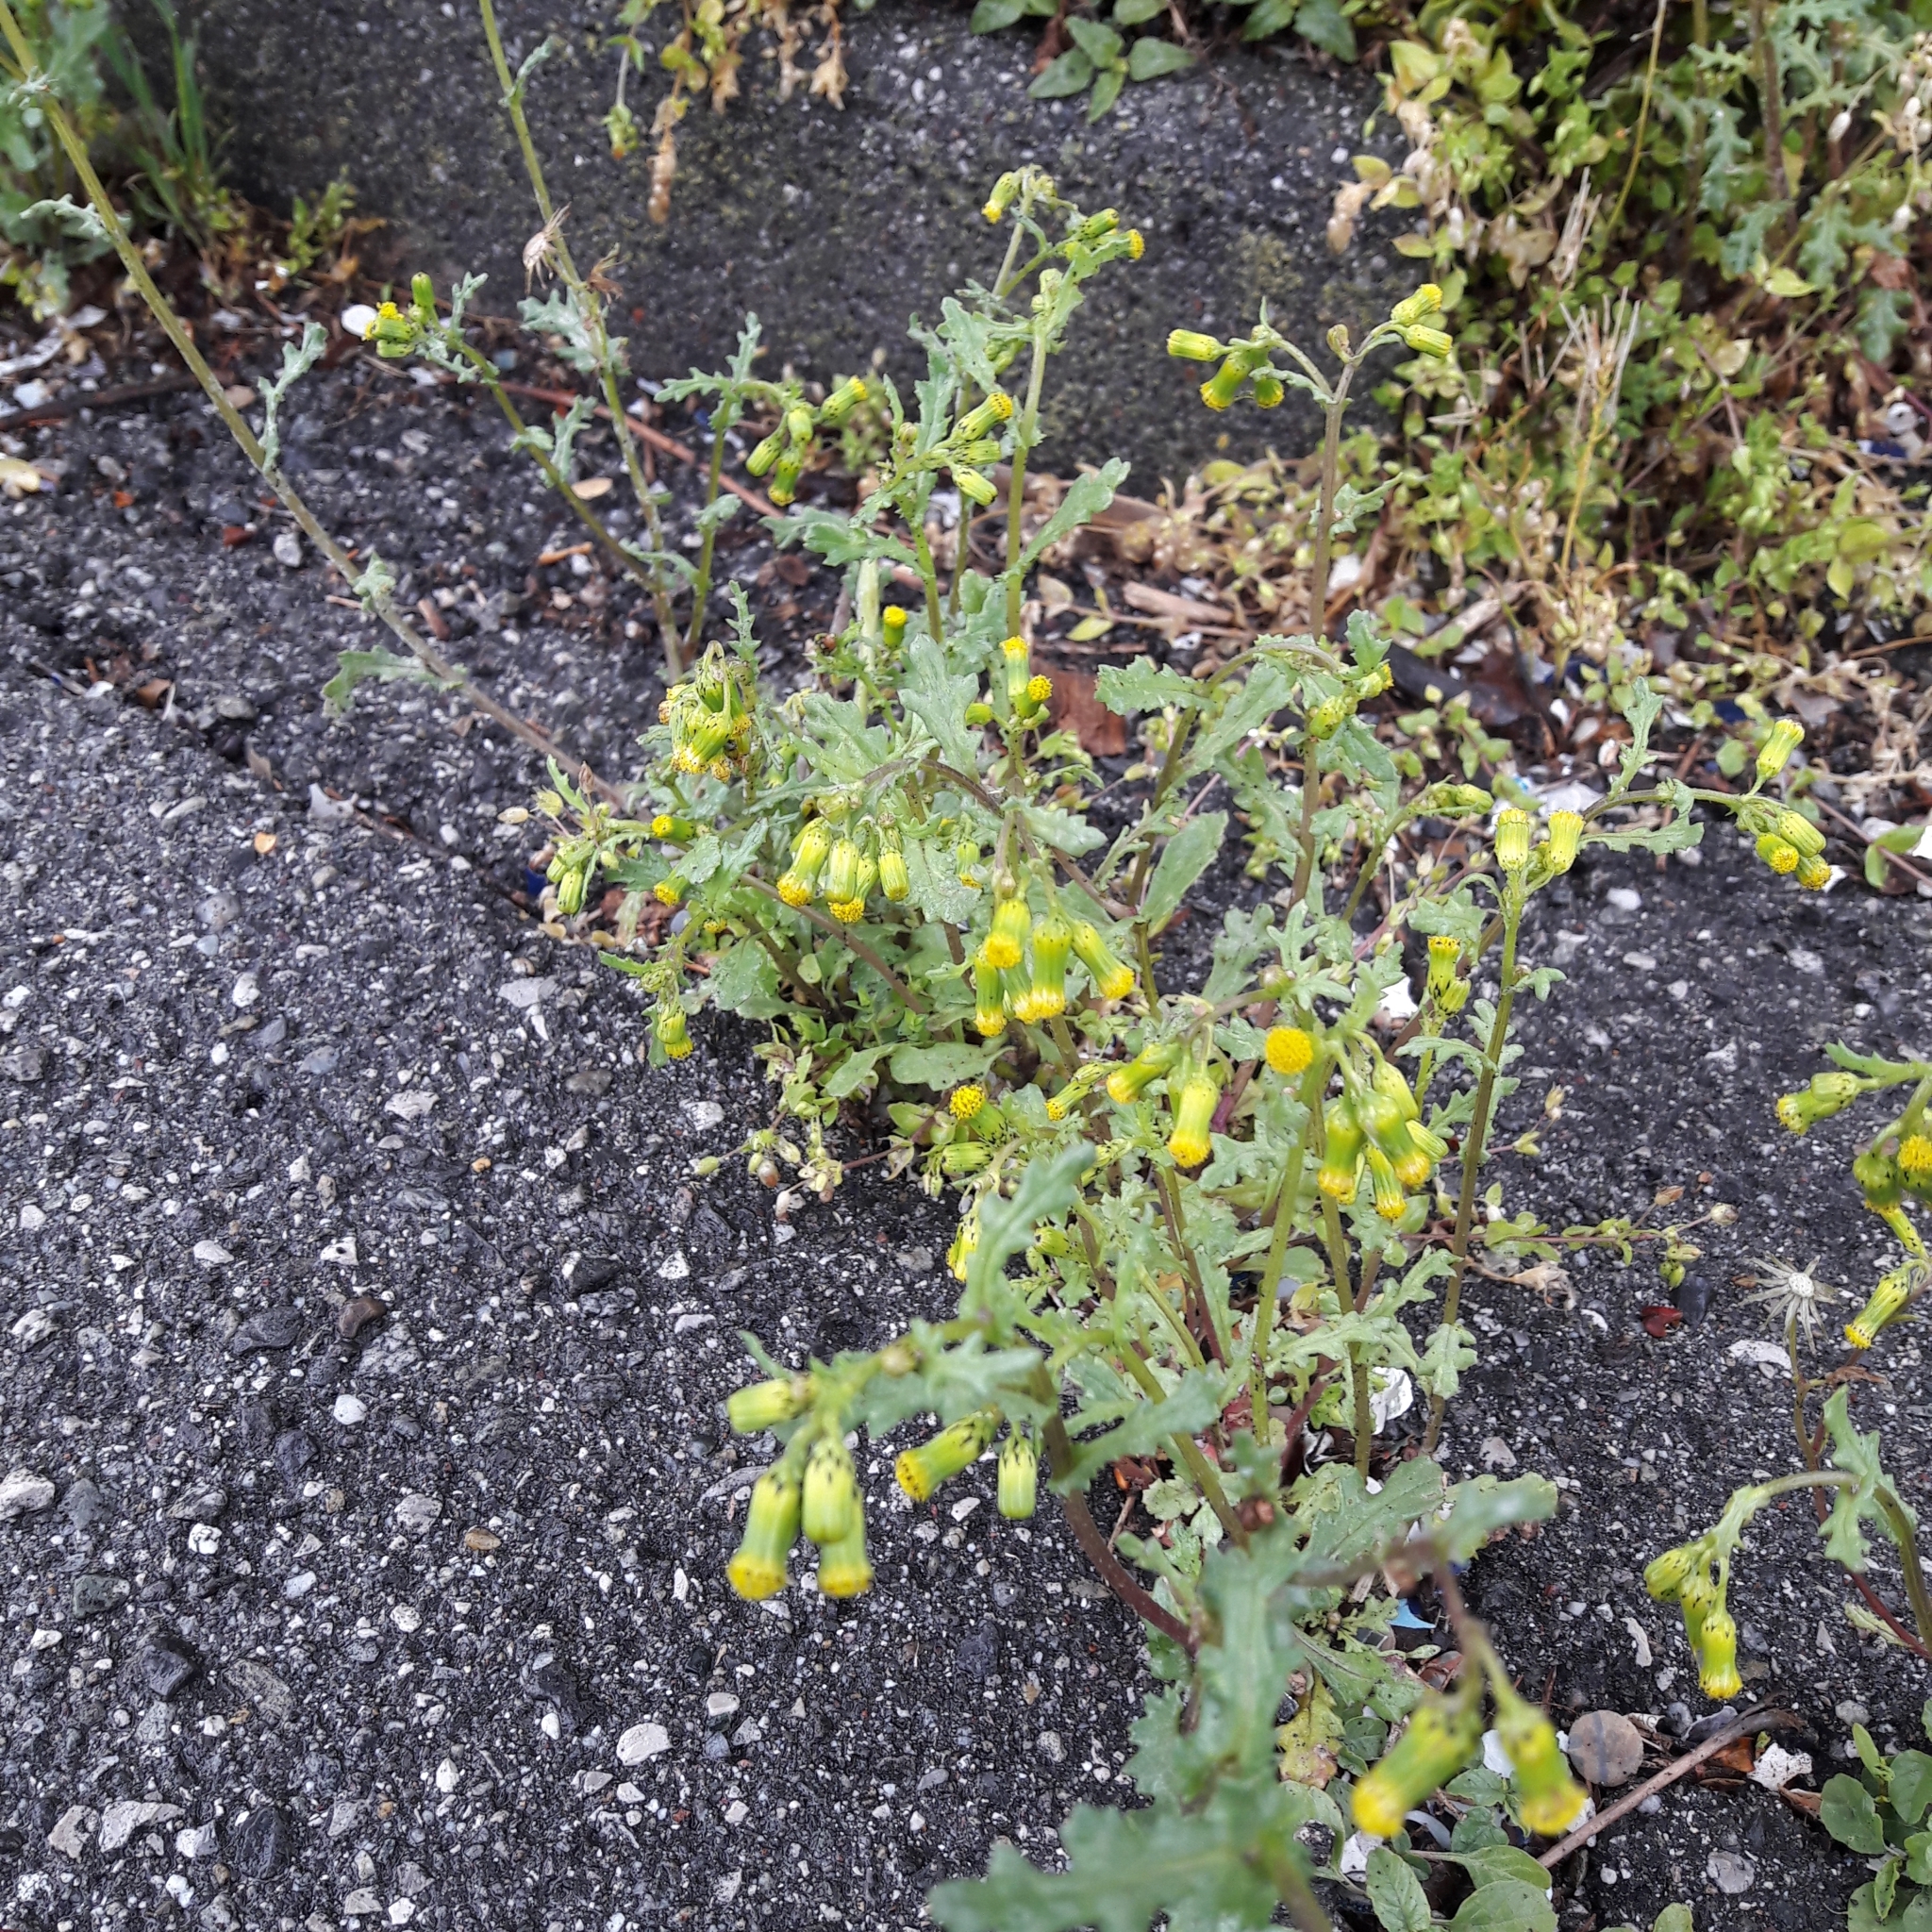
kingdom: Plantae
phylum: Tracheophyta
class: Magnoliopsida
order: Asterales
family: Asteraceae
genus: Senecio
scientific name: Senecio vulgaris
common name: Old-man-in-the-spring
